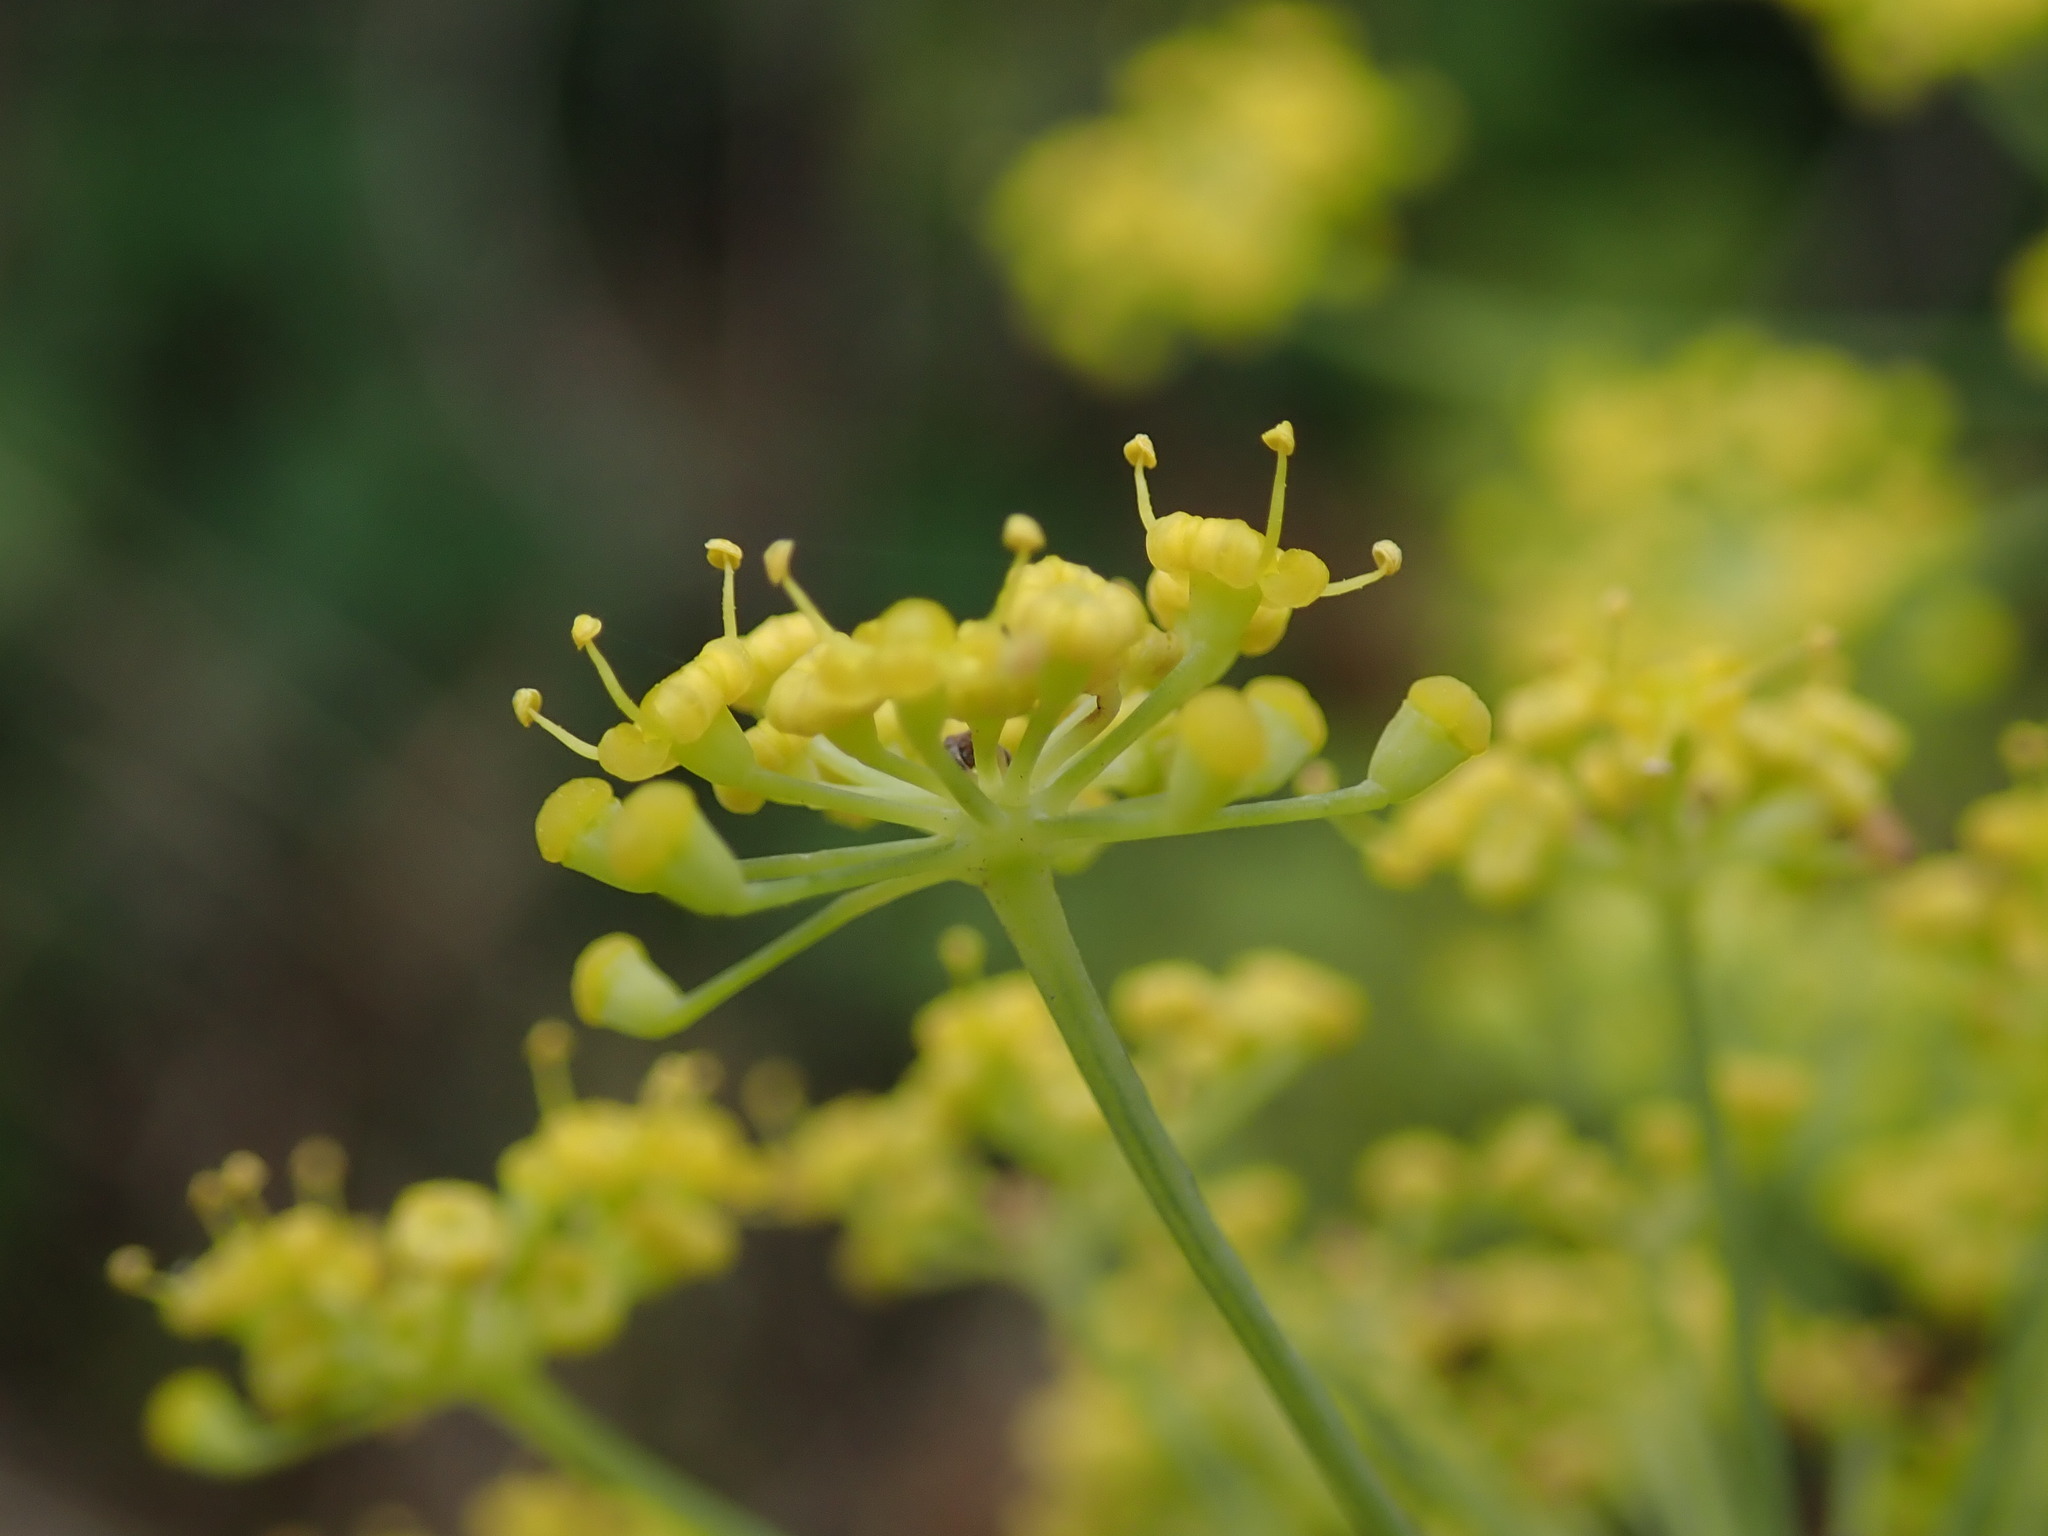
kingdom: Plantae
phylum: Tracheophyta
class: Magnoliopsida
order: Apiales
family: Apiaceae
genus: Foeniculum
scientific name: Foeniculum vulgare
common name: Fennel
